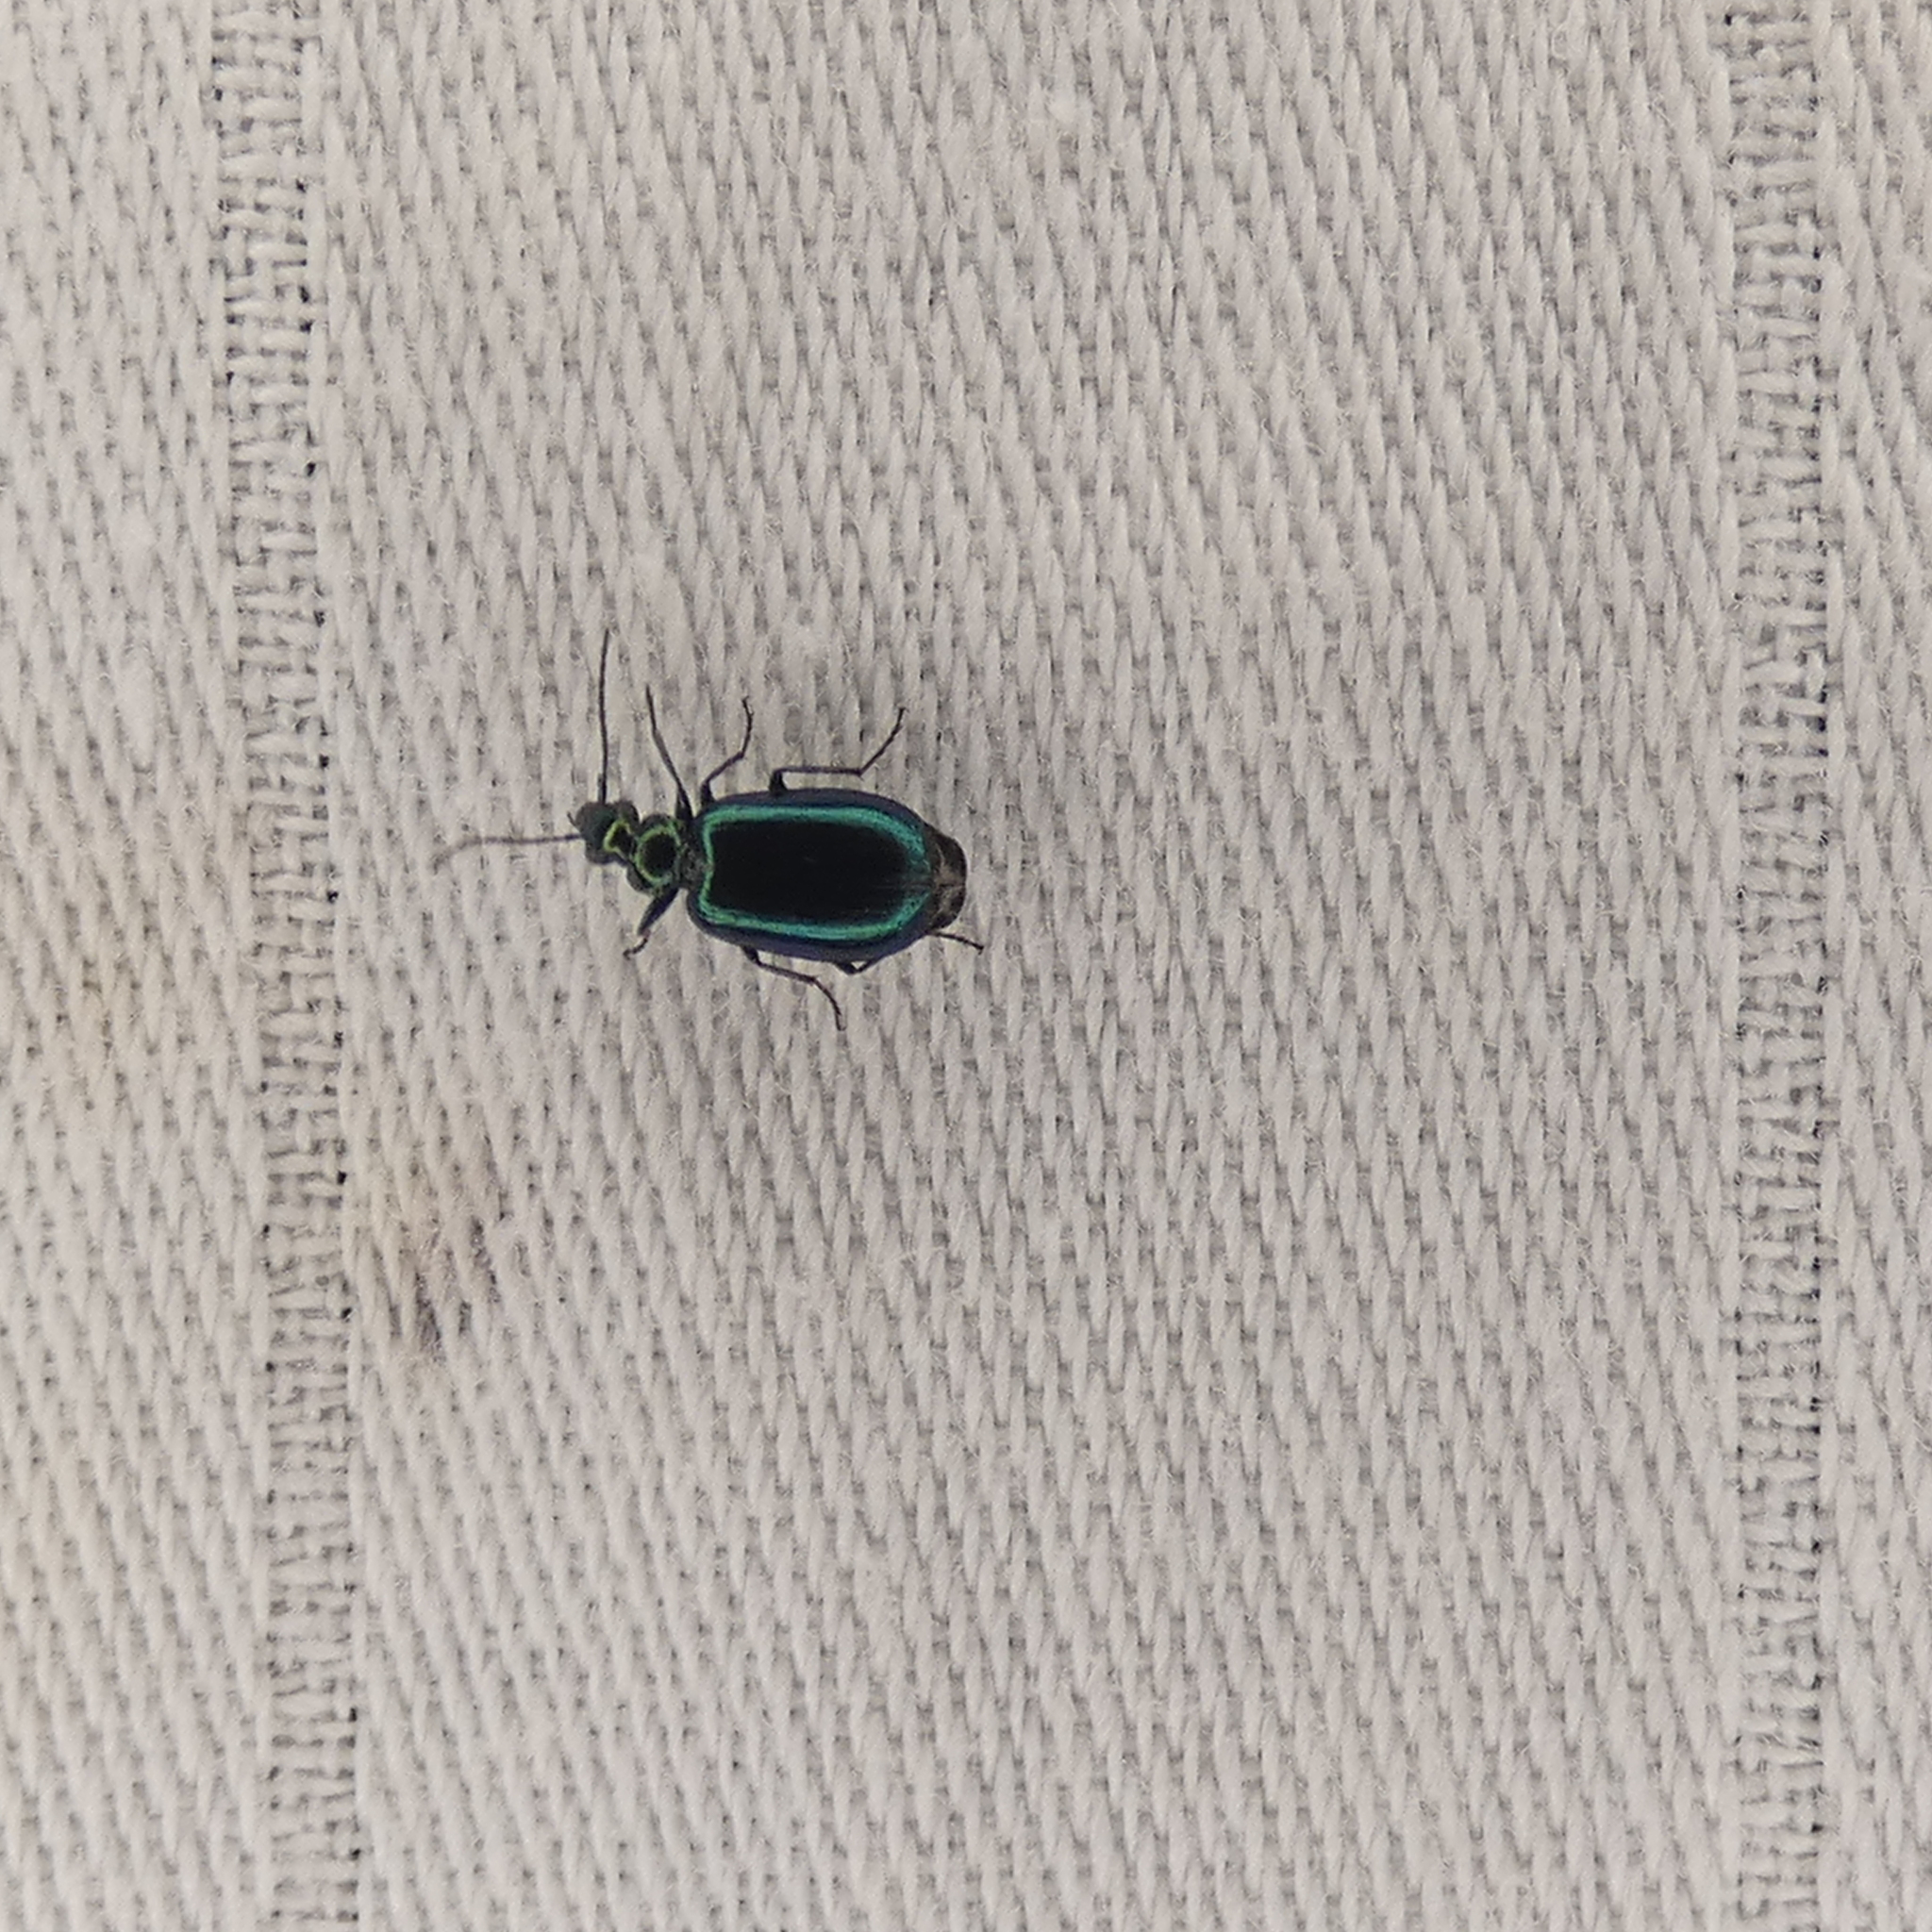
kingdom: Animalia
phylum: Arthropoda
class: Insecta
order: Coleoptera
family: Carabidae
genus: Lebia
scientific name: Lebia viridis
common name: Flower lebia beetle
